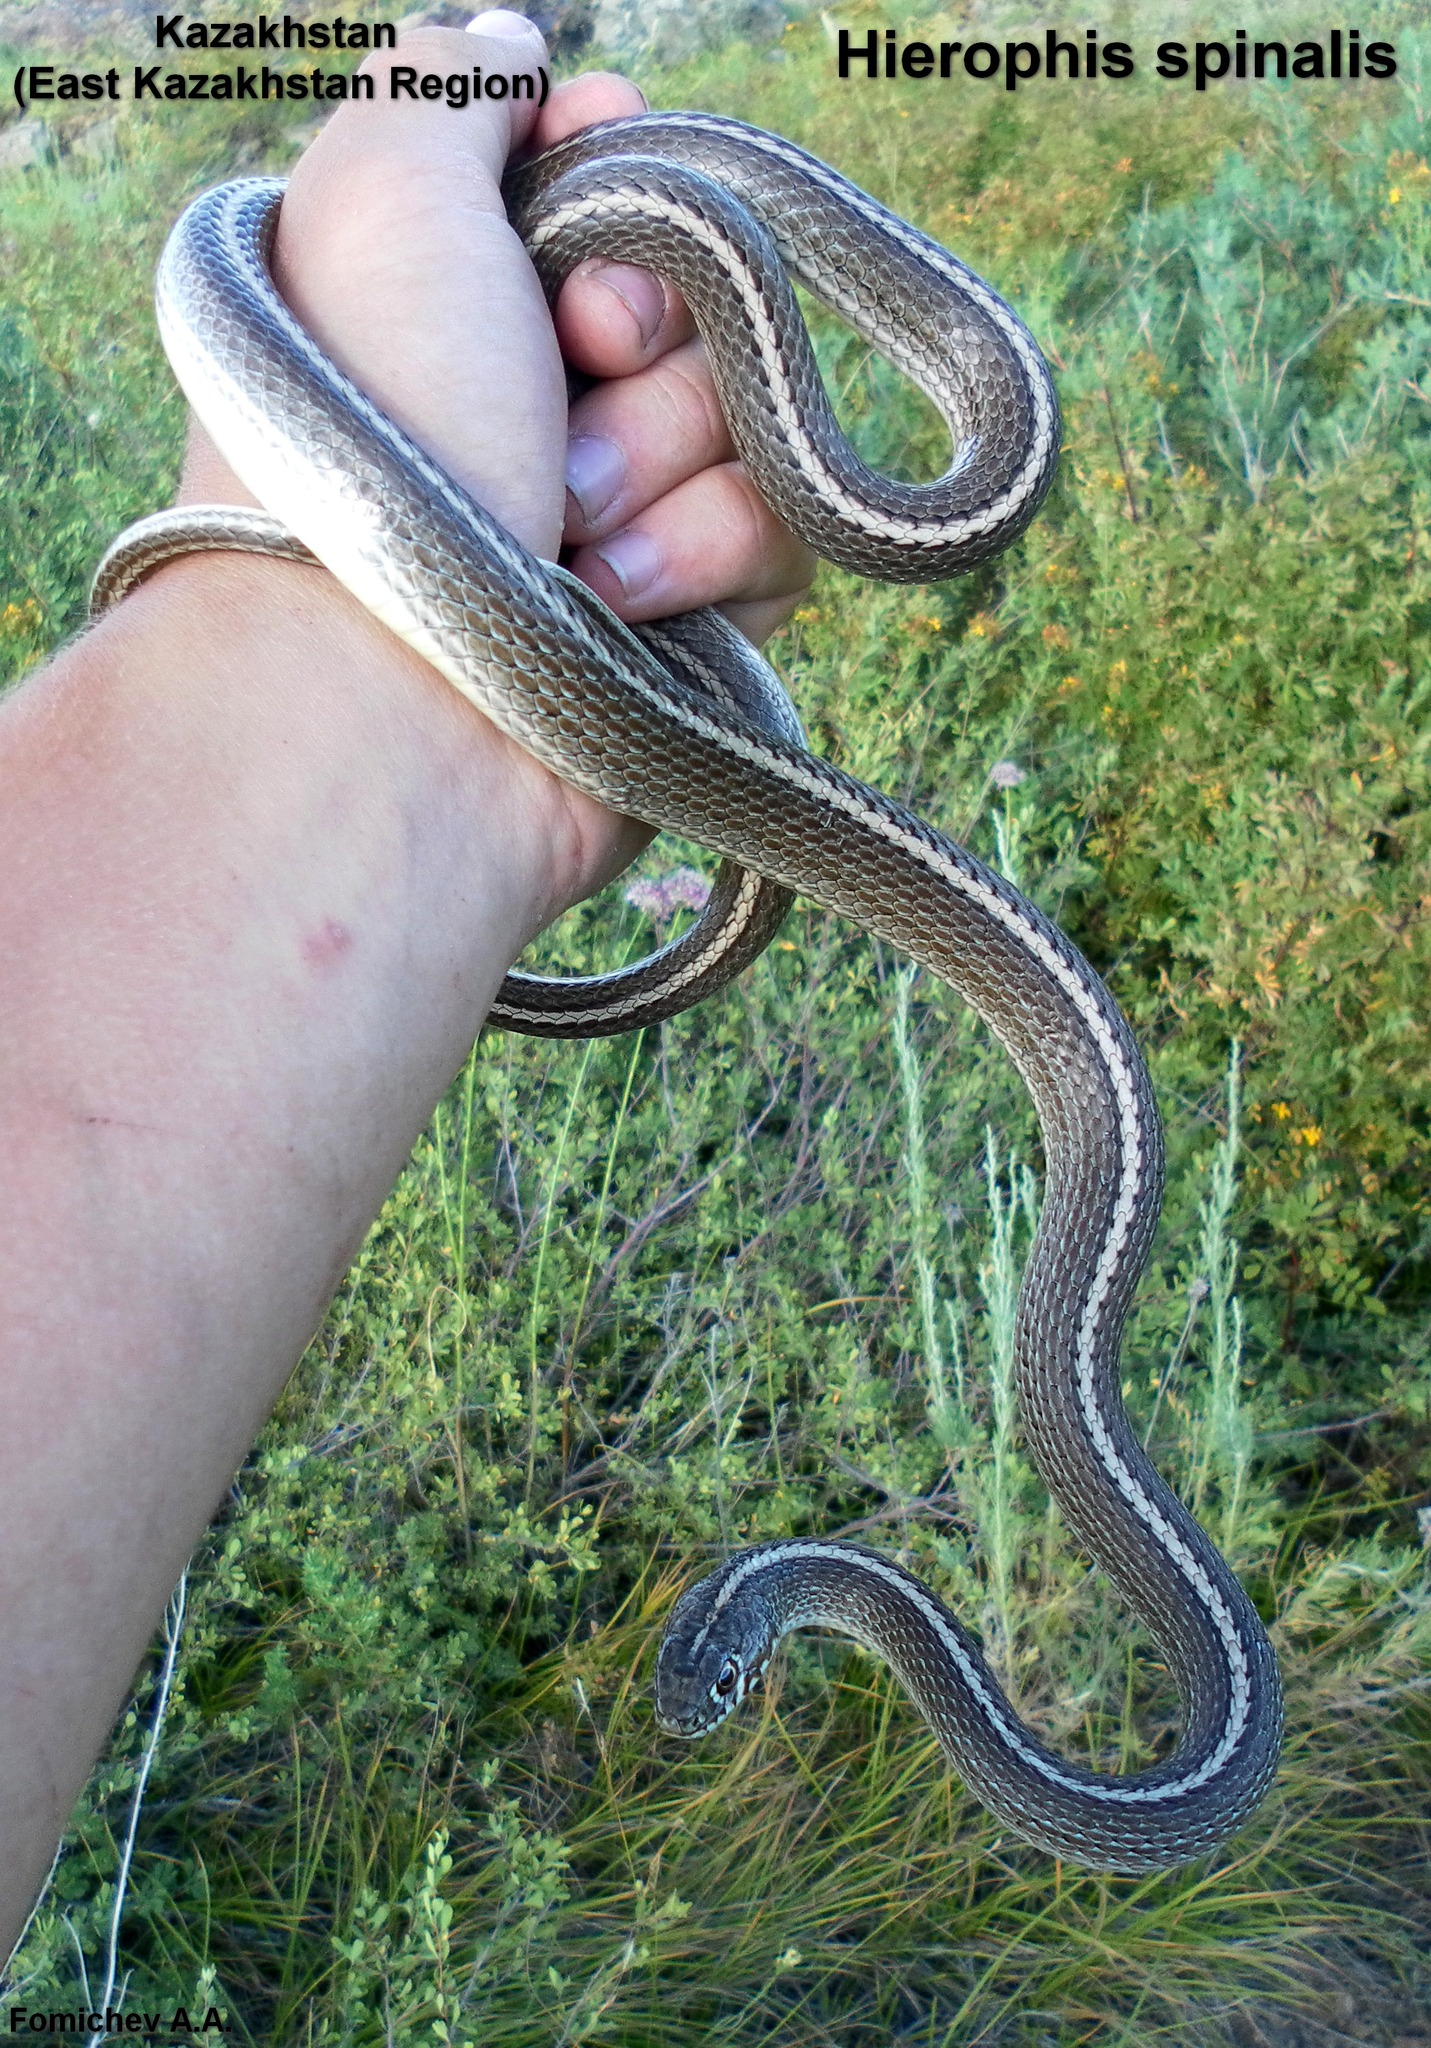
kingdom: Animalia
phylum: Chordata
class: Squamata
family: Colubridae
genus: Orientocoluber
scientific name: Orientocoluber spinalis
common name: Slender racer
